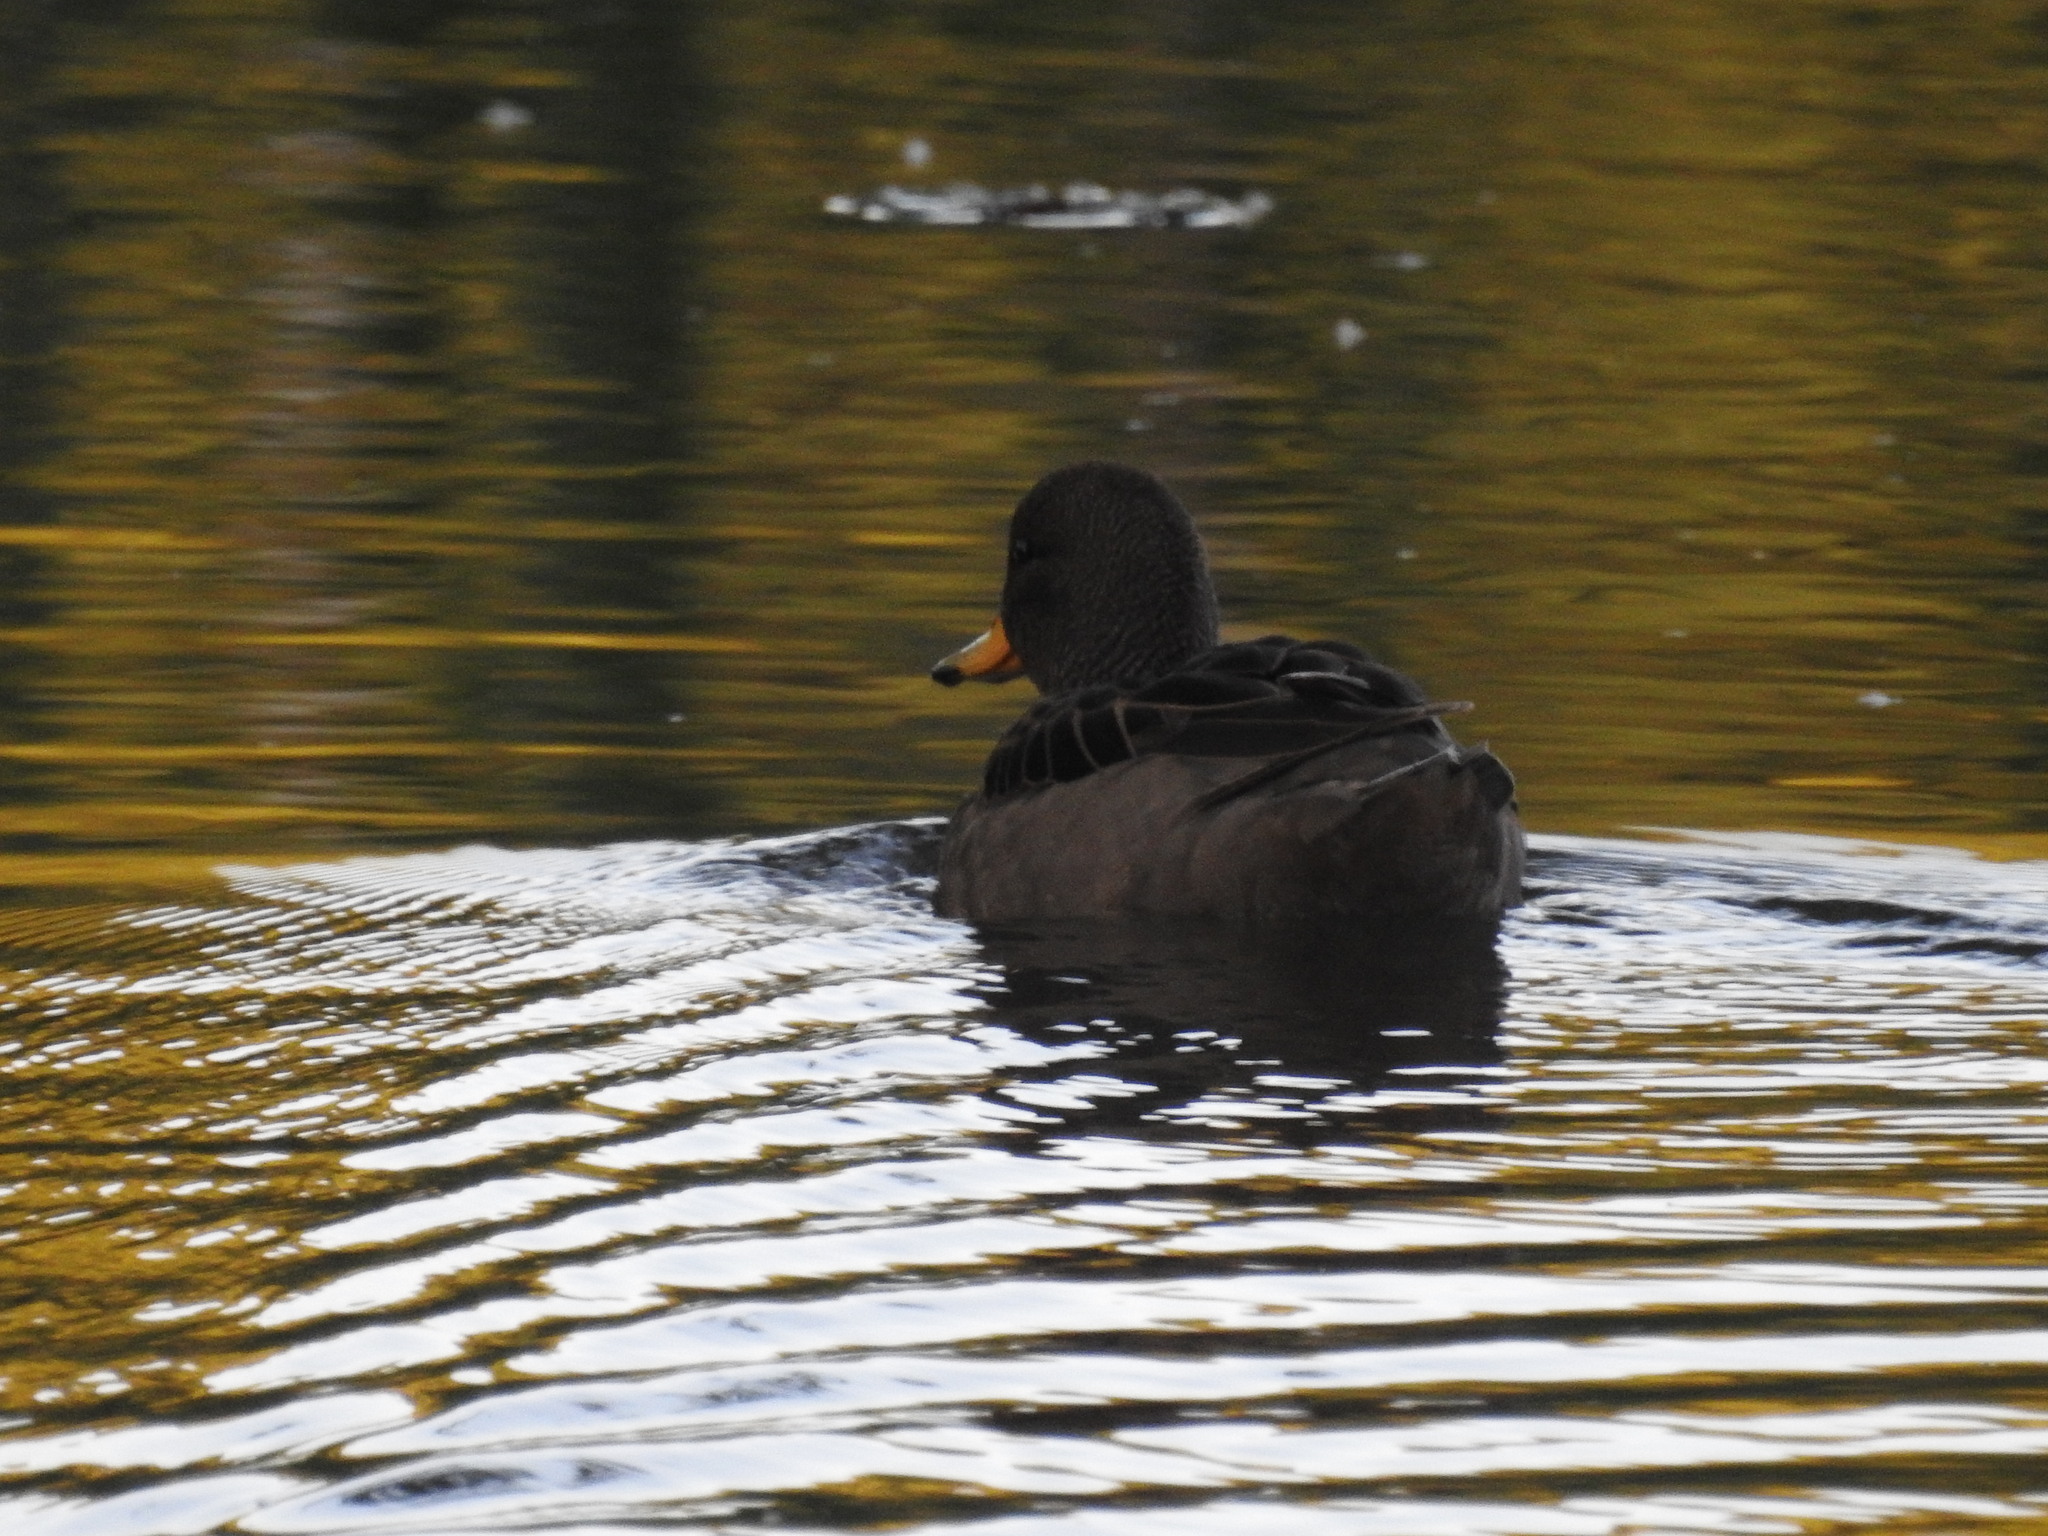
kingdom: Animalia
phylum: Chordata
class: Aves
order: Anseriformes
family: Anatidae
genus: Anas
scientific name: Anas flavirostris
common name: Yellow-billed teal
